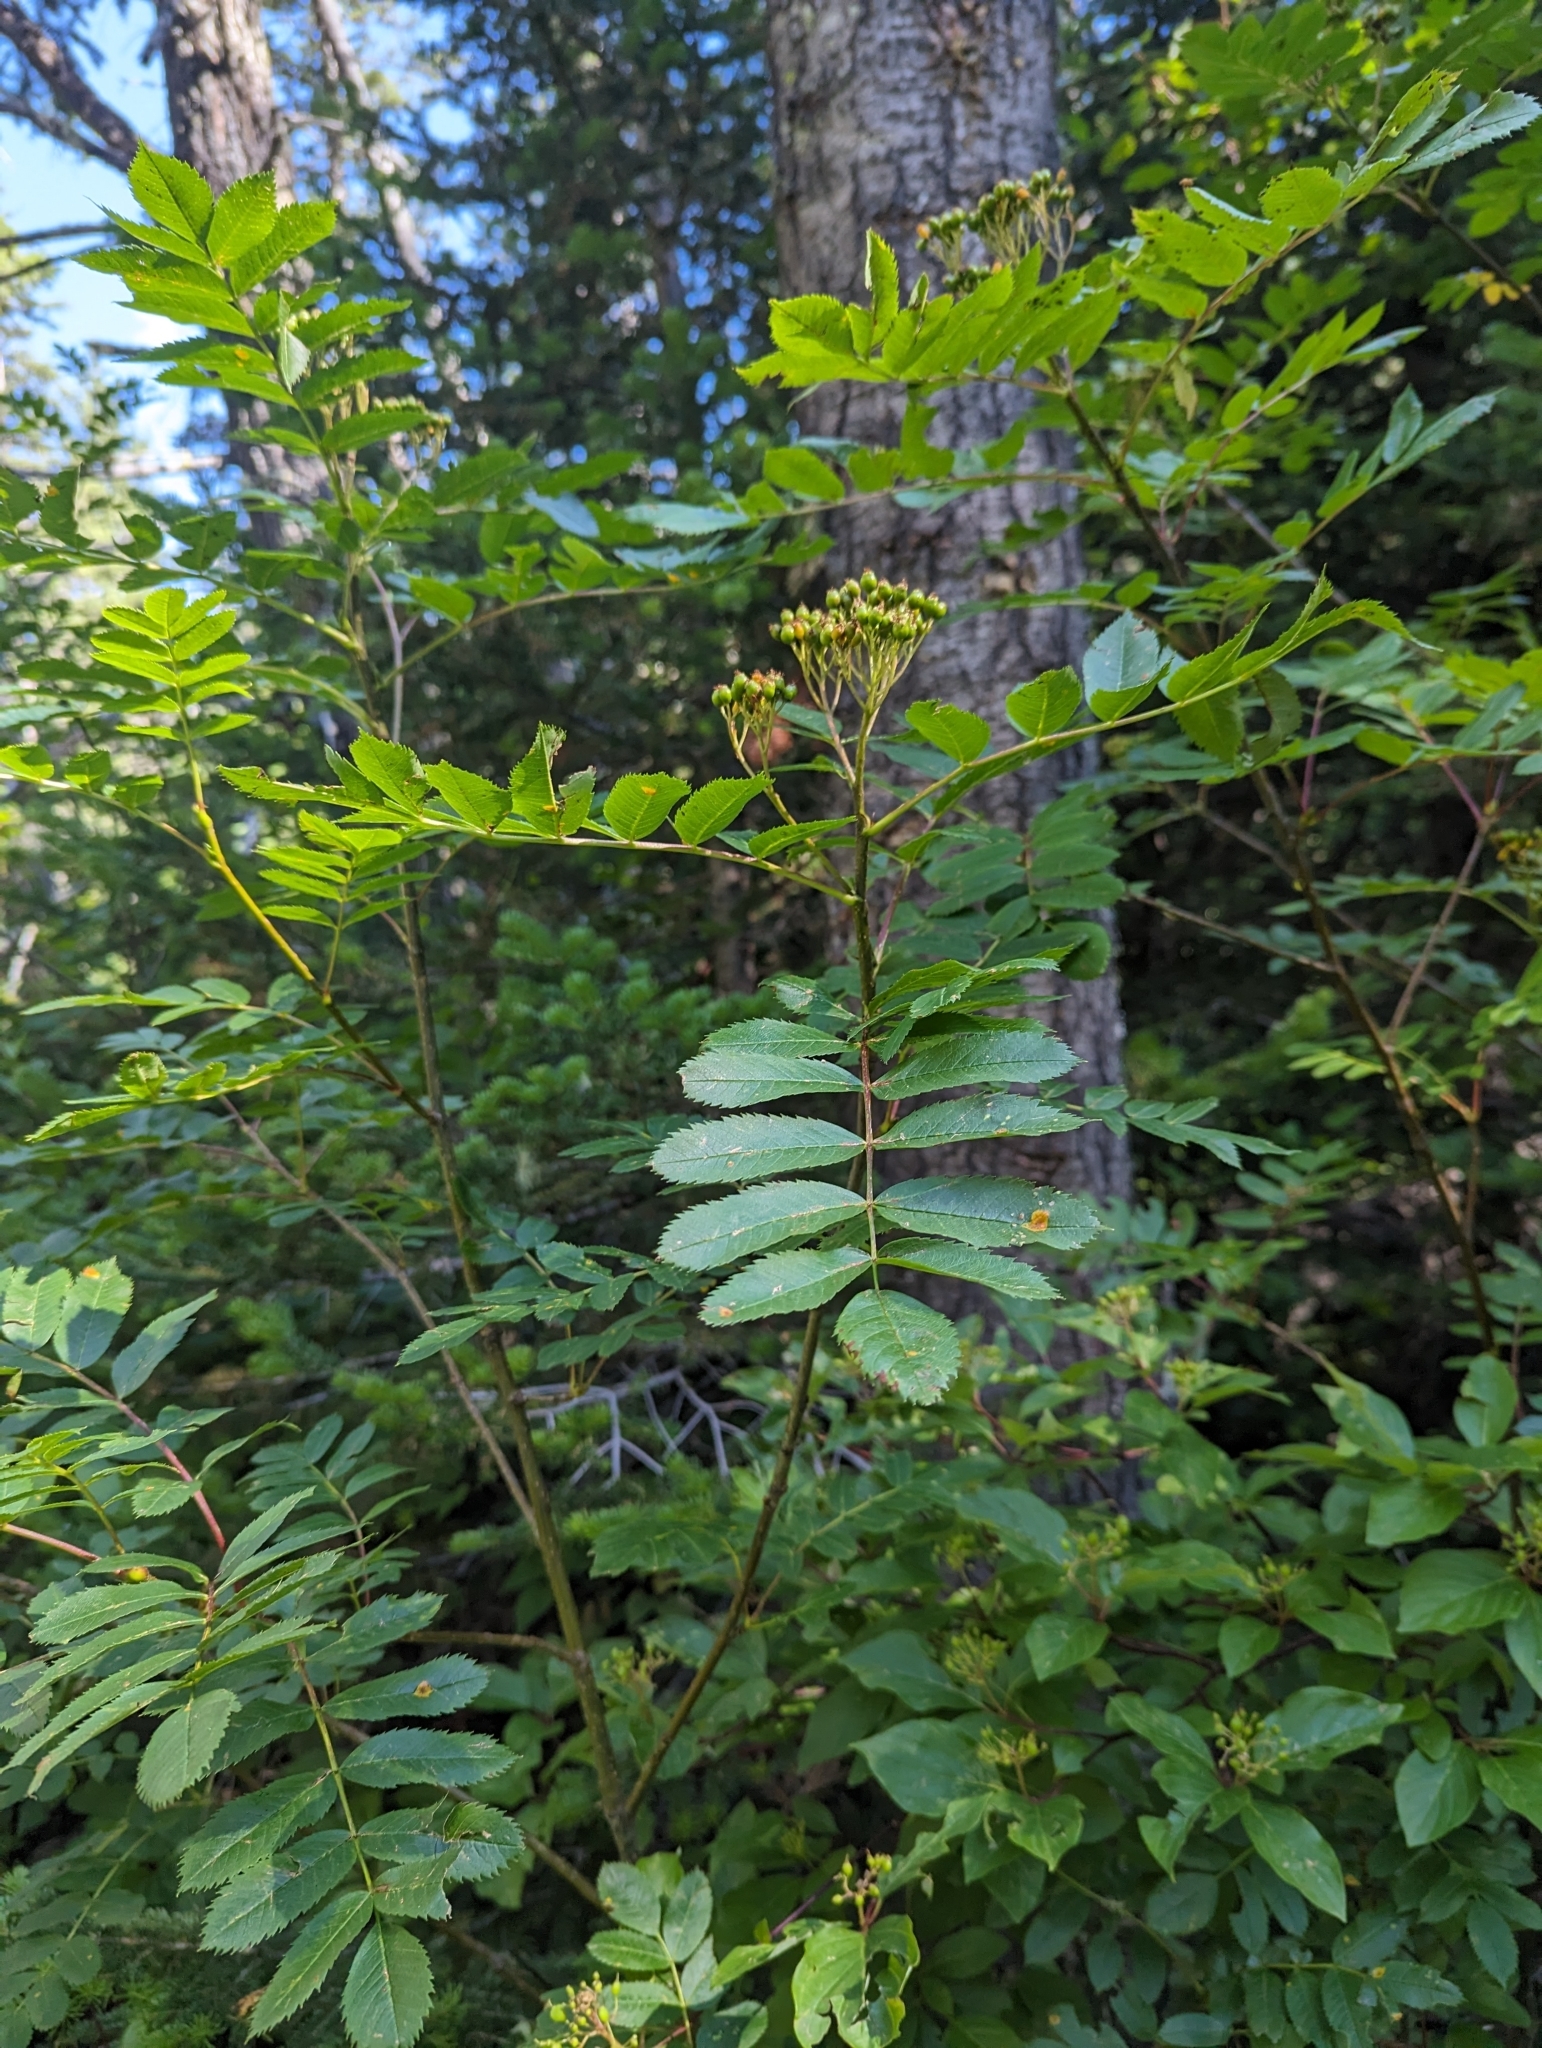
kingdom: Plantae
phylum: Tracheophyta
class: Magnoliopsida
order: Rosales
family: Rosaceae
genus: Sorbus
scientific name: Sorbus scopulina
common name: Greene's mountain-ash
